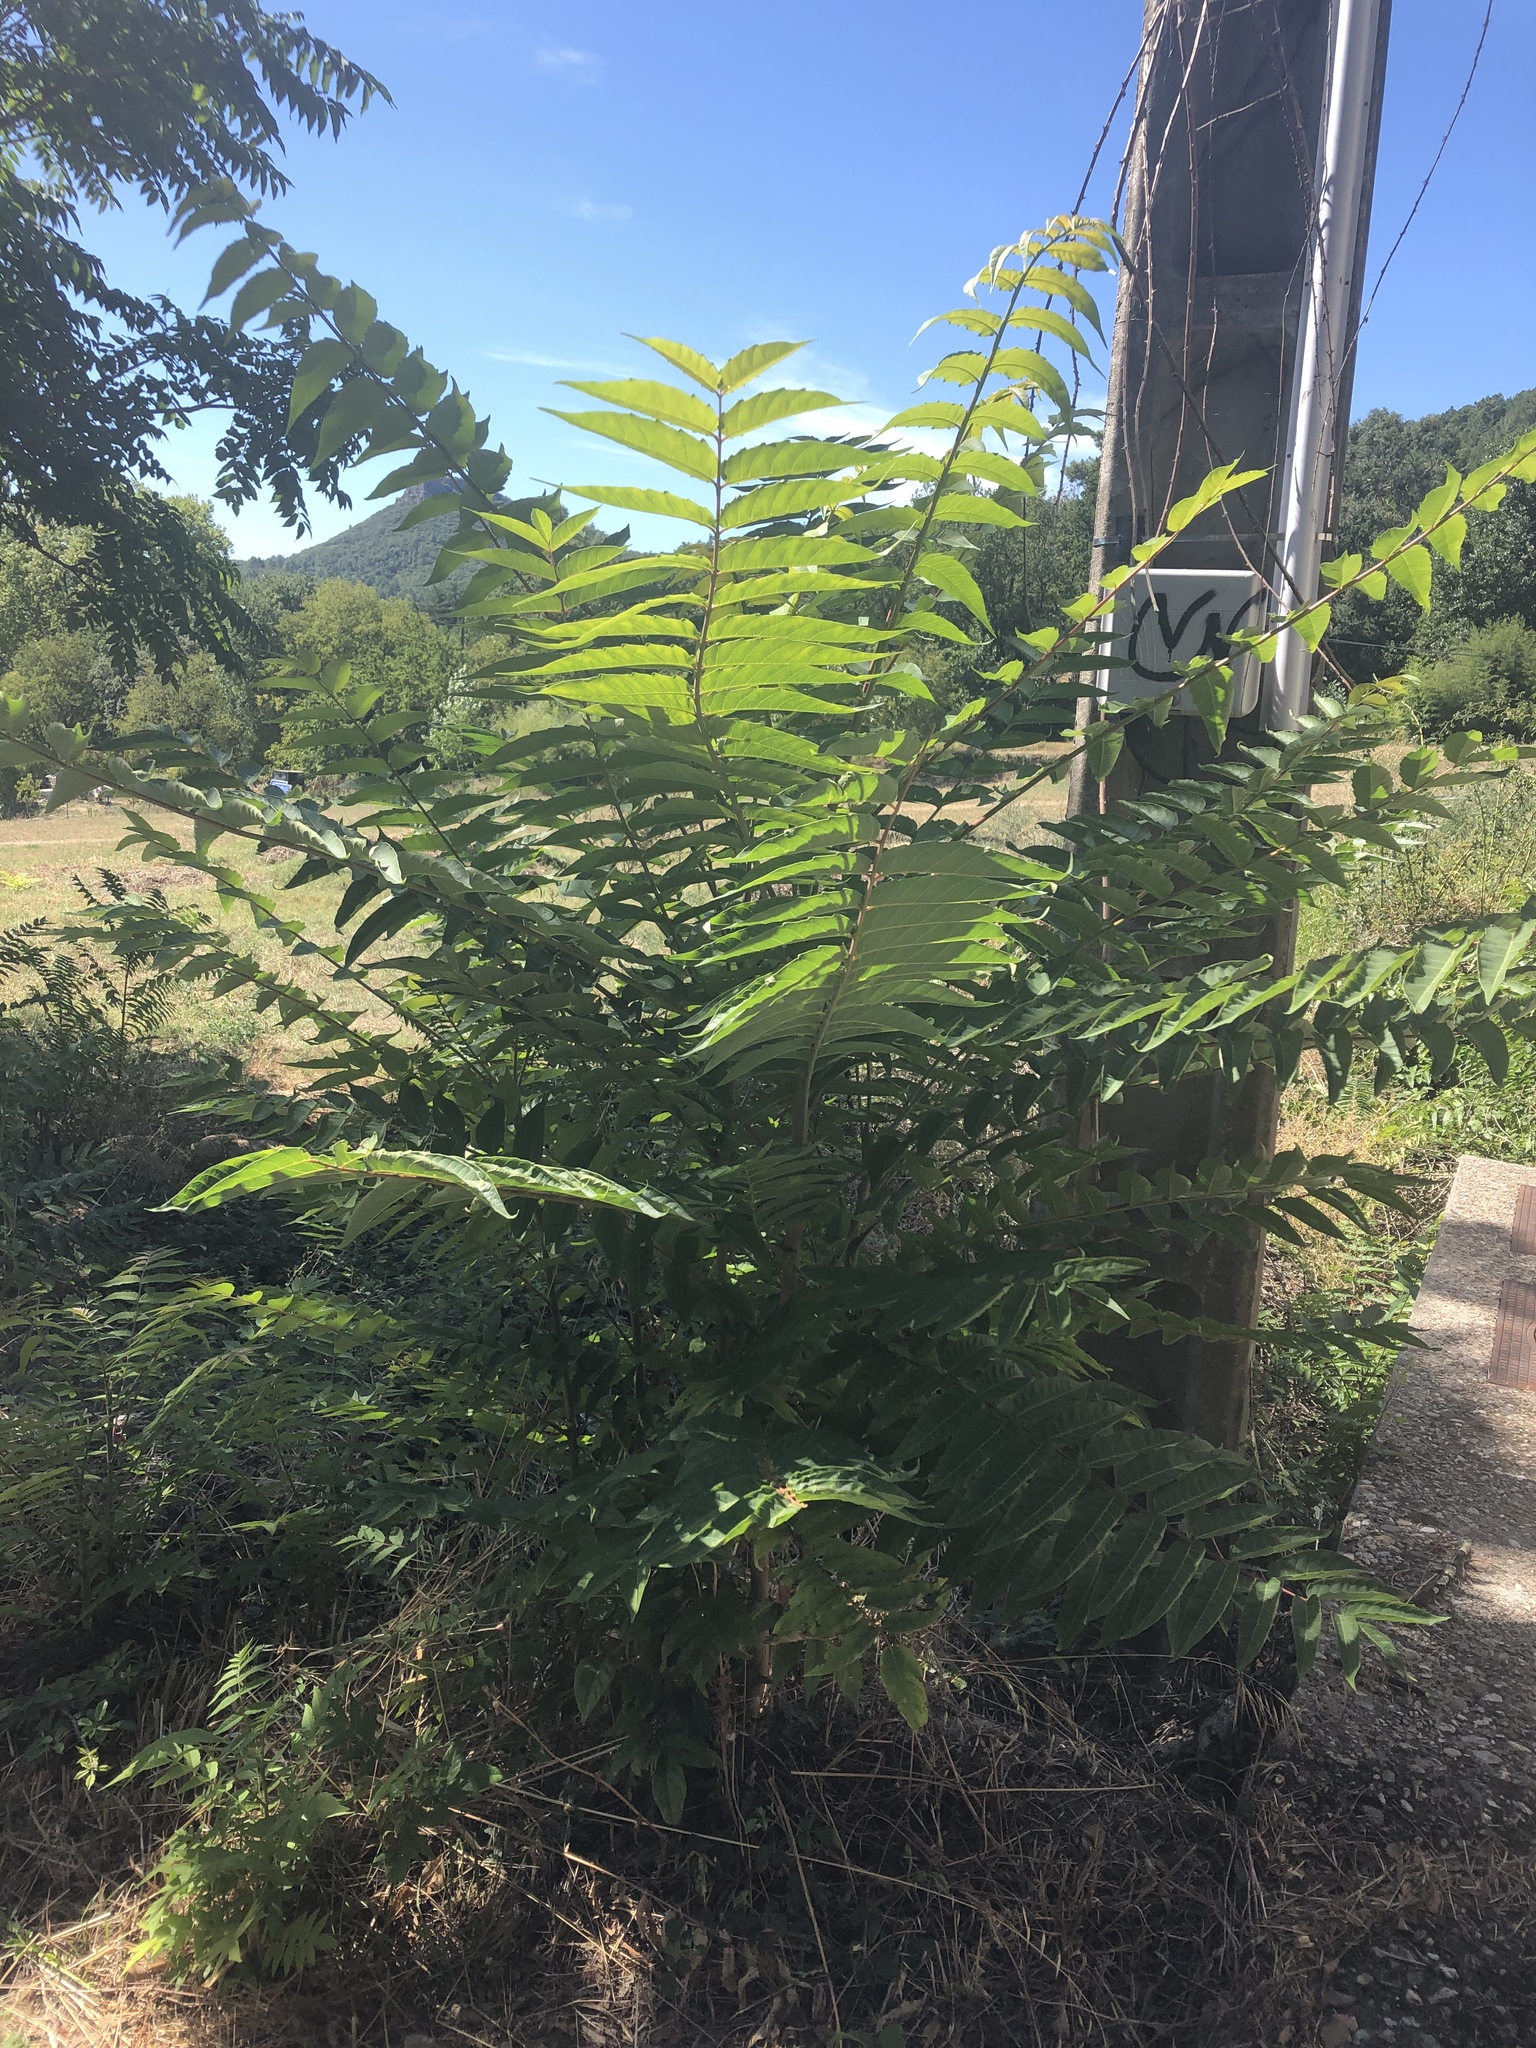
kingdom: Plantae
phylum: Tracheophyta
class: Magnoliopsida
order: Sapindales
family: Simaroubaceae
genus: Ailanthus
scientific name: Ailanthus altissima
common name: Tree-of-heaven
